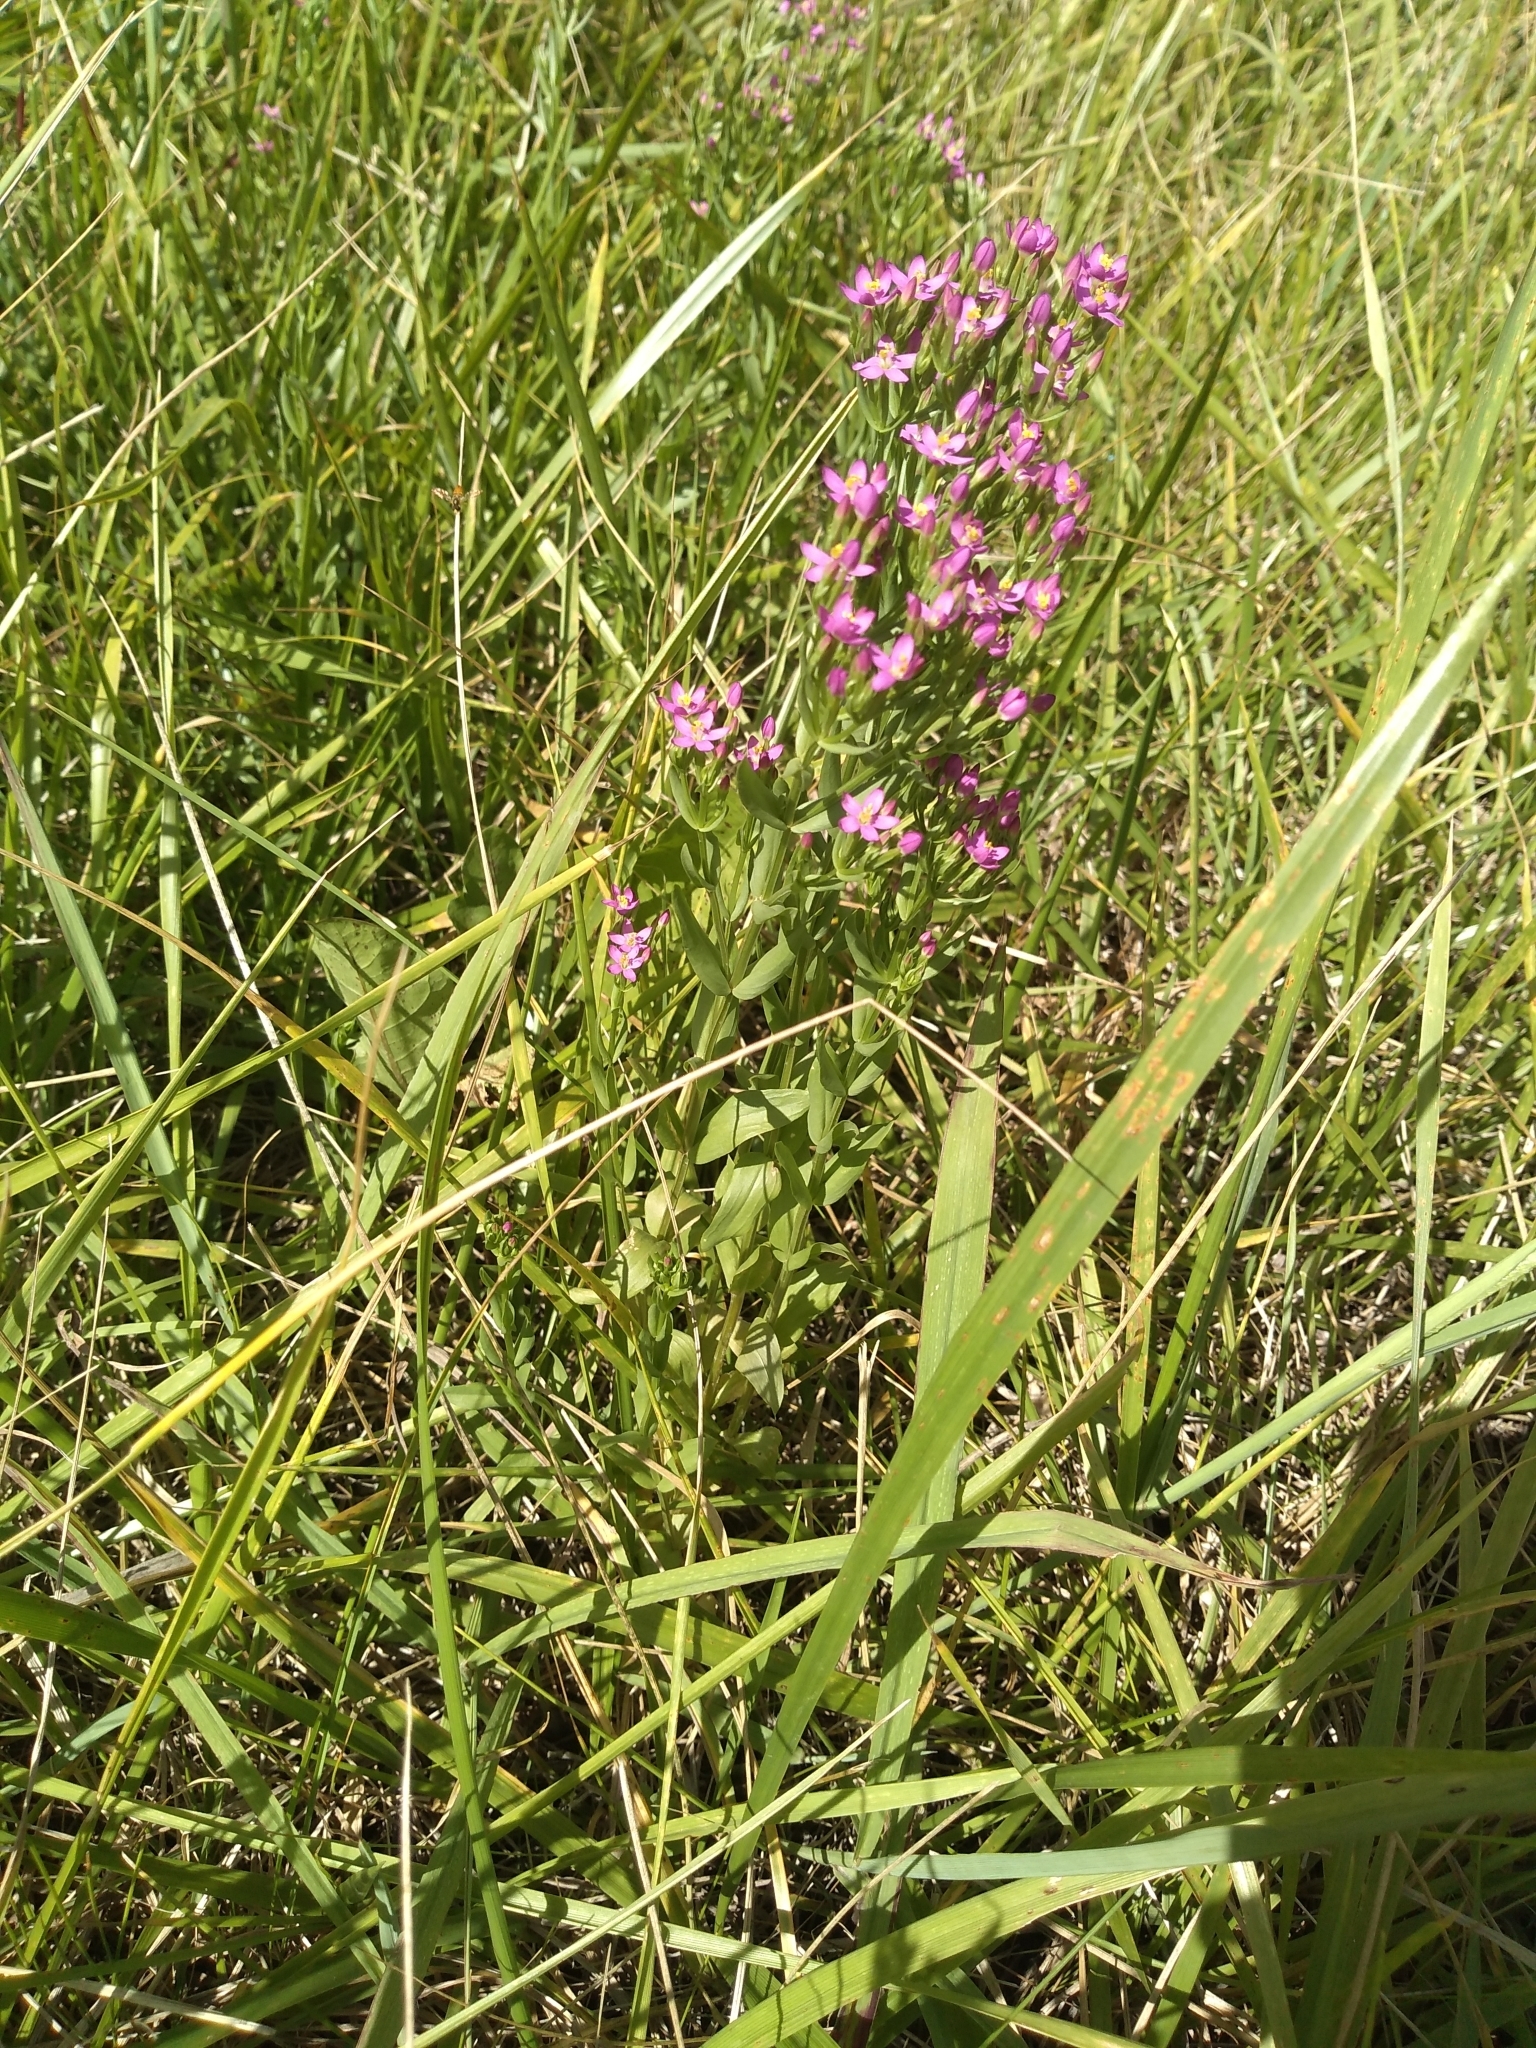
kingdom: Plantae
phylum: Tracheophyta
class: Magnoliopsida
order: Gentianales
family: Gentianaceae
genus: Centaurium
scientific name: Centaurium pulchellum
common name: Lesser centaury
